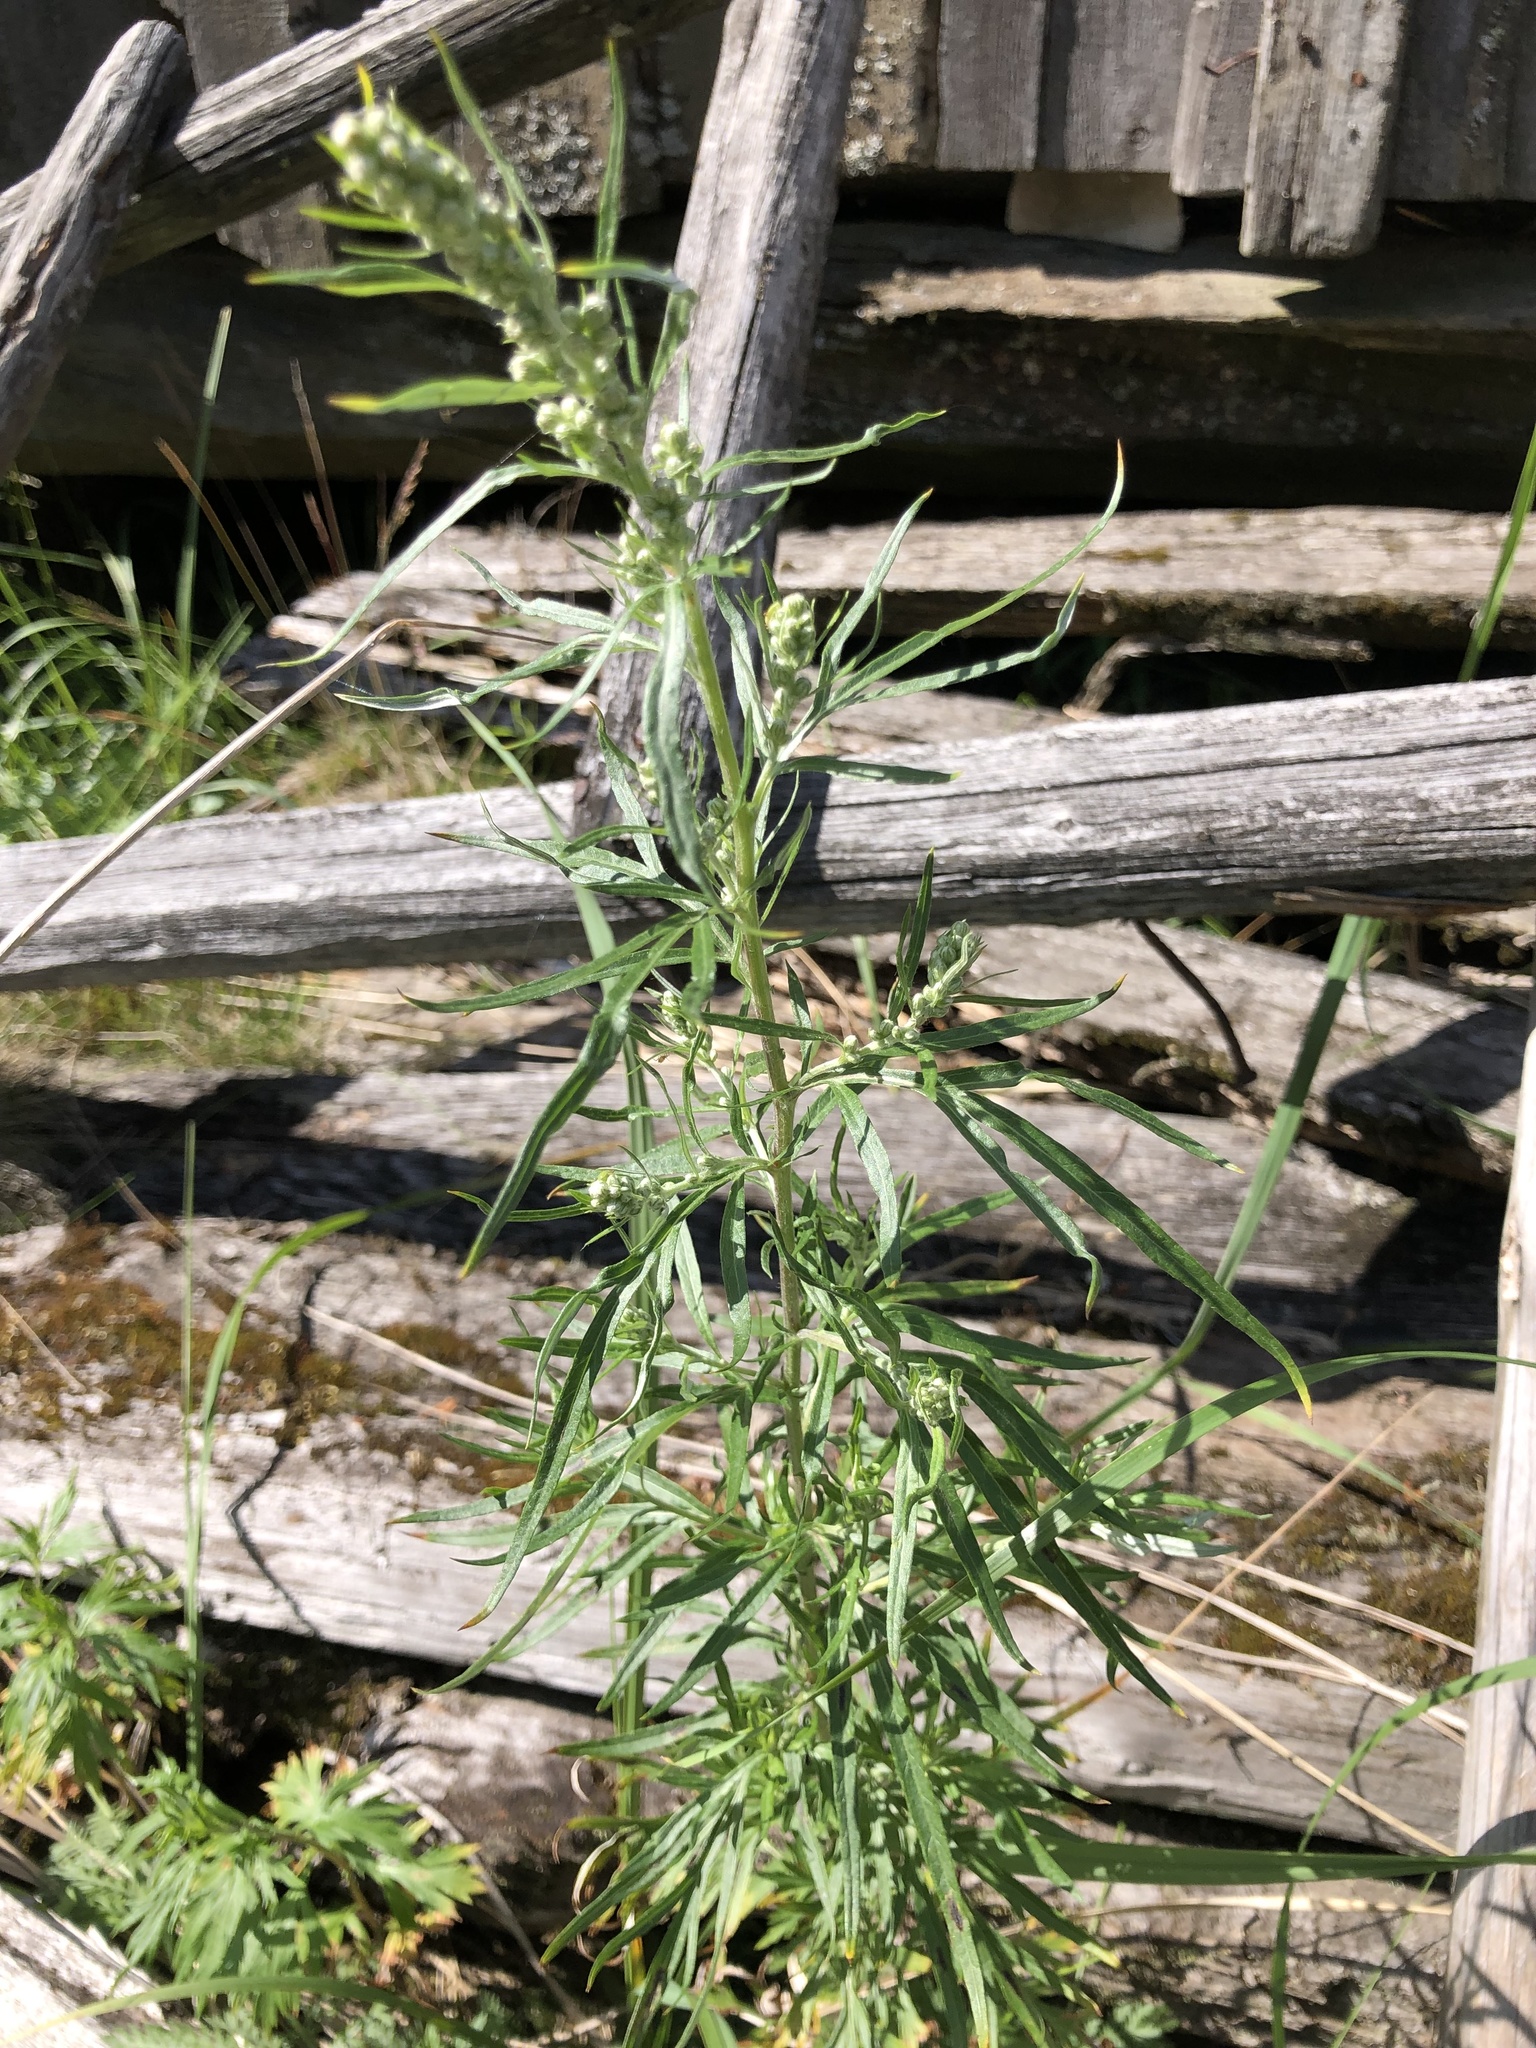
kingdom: Plantae
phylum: Tracheophyta
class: Magnoliopsida
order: Asterales
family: Asteraceae
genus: Artemisia
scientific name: Artemisia vulgaris
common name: Mugwort
